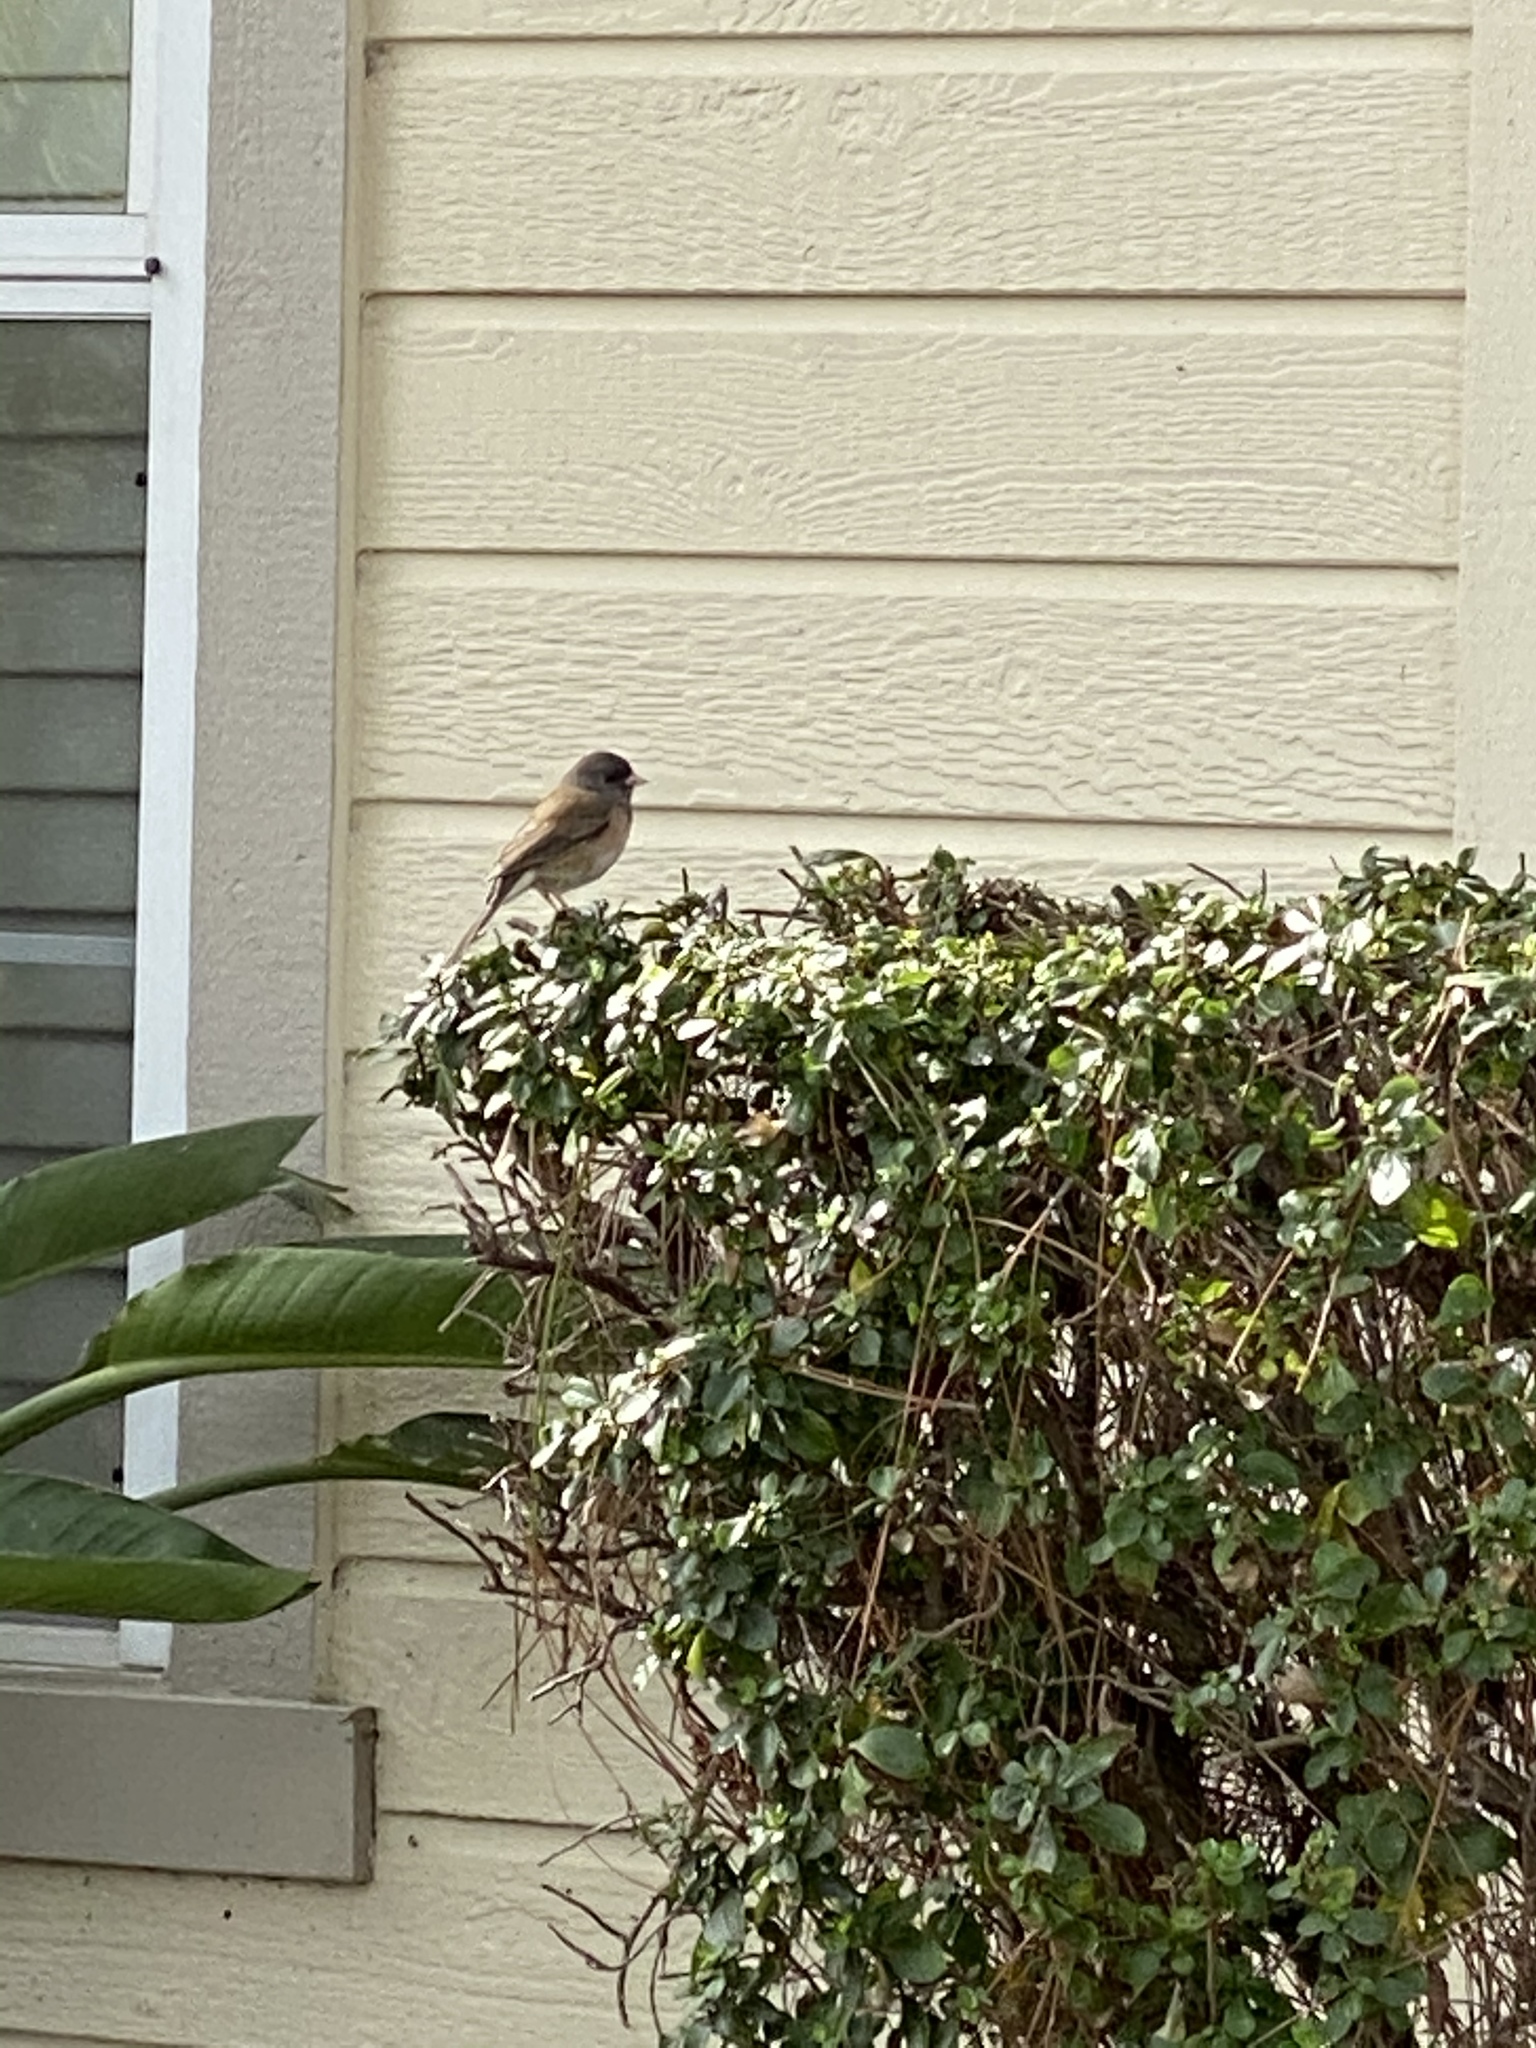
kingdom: Animalia
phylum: Chordata
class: Aves
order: Passeriformes
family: Passerellidae
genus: Junco
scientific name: Junco hyemalis
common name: Dark-eyed junco
